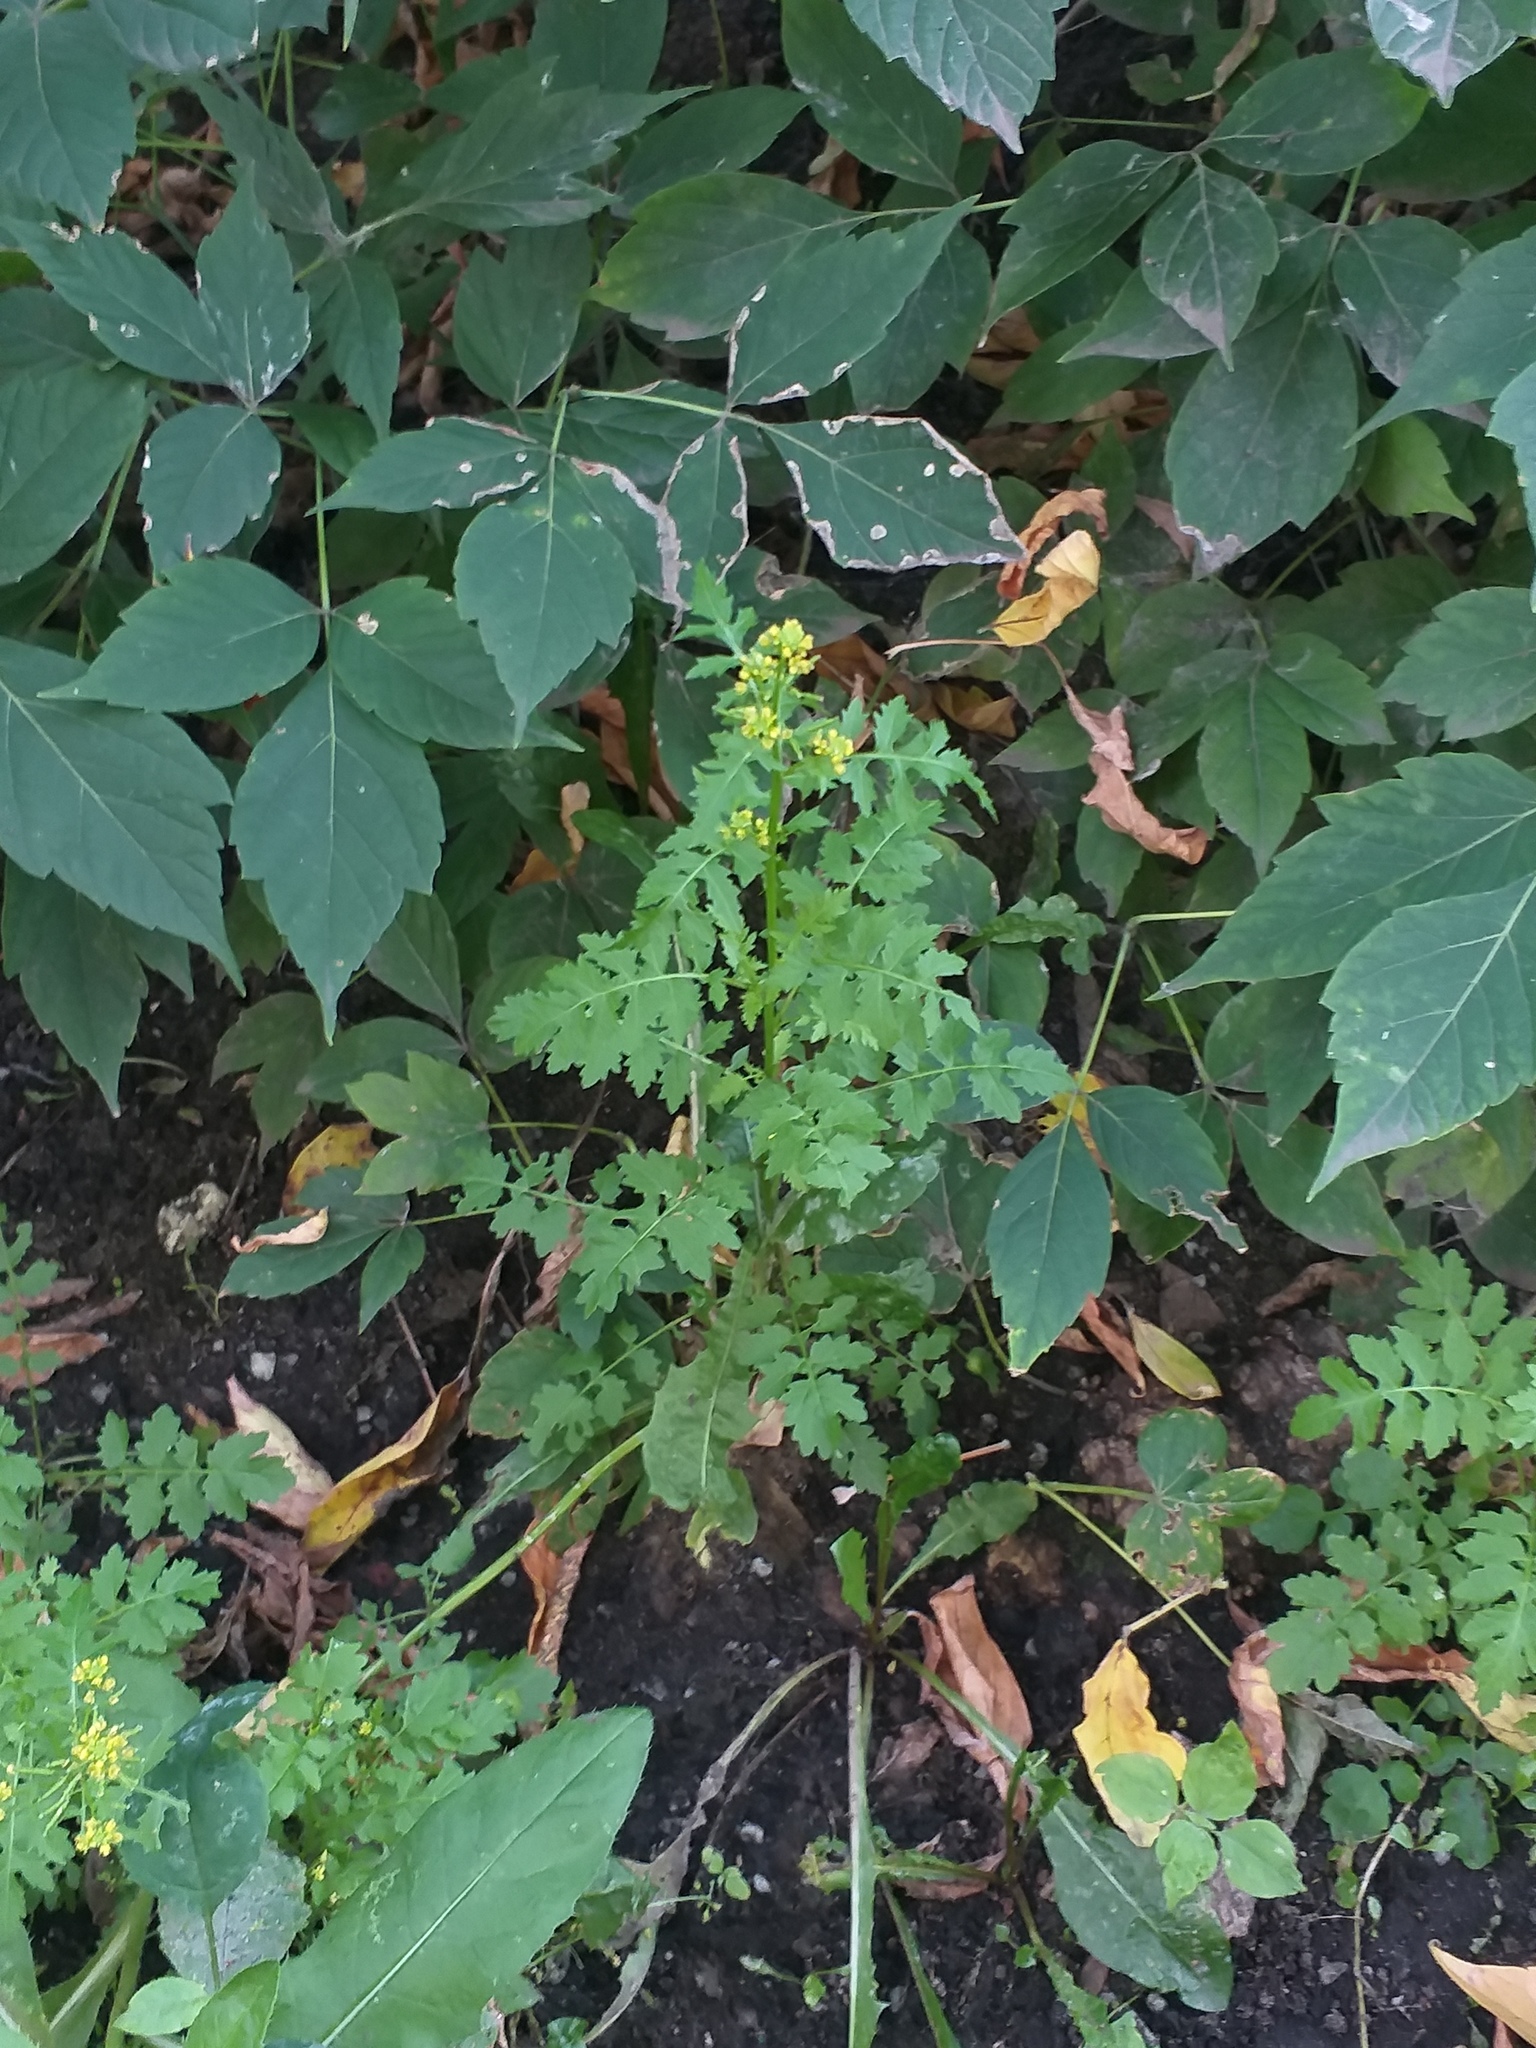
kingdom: Plantae
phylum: Tracheophyta
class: Magnoliopsida
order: Brassicales
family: Brassicaceae
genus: Rorippa
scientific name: Rorippa palustris
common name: Marsh yellow-cress
